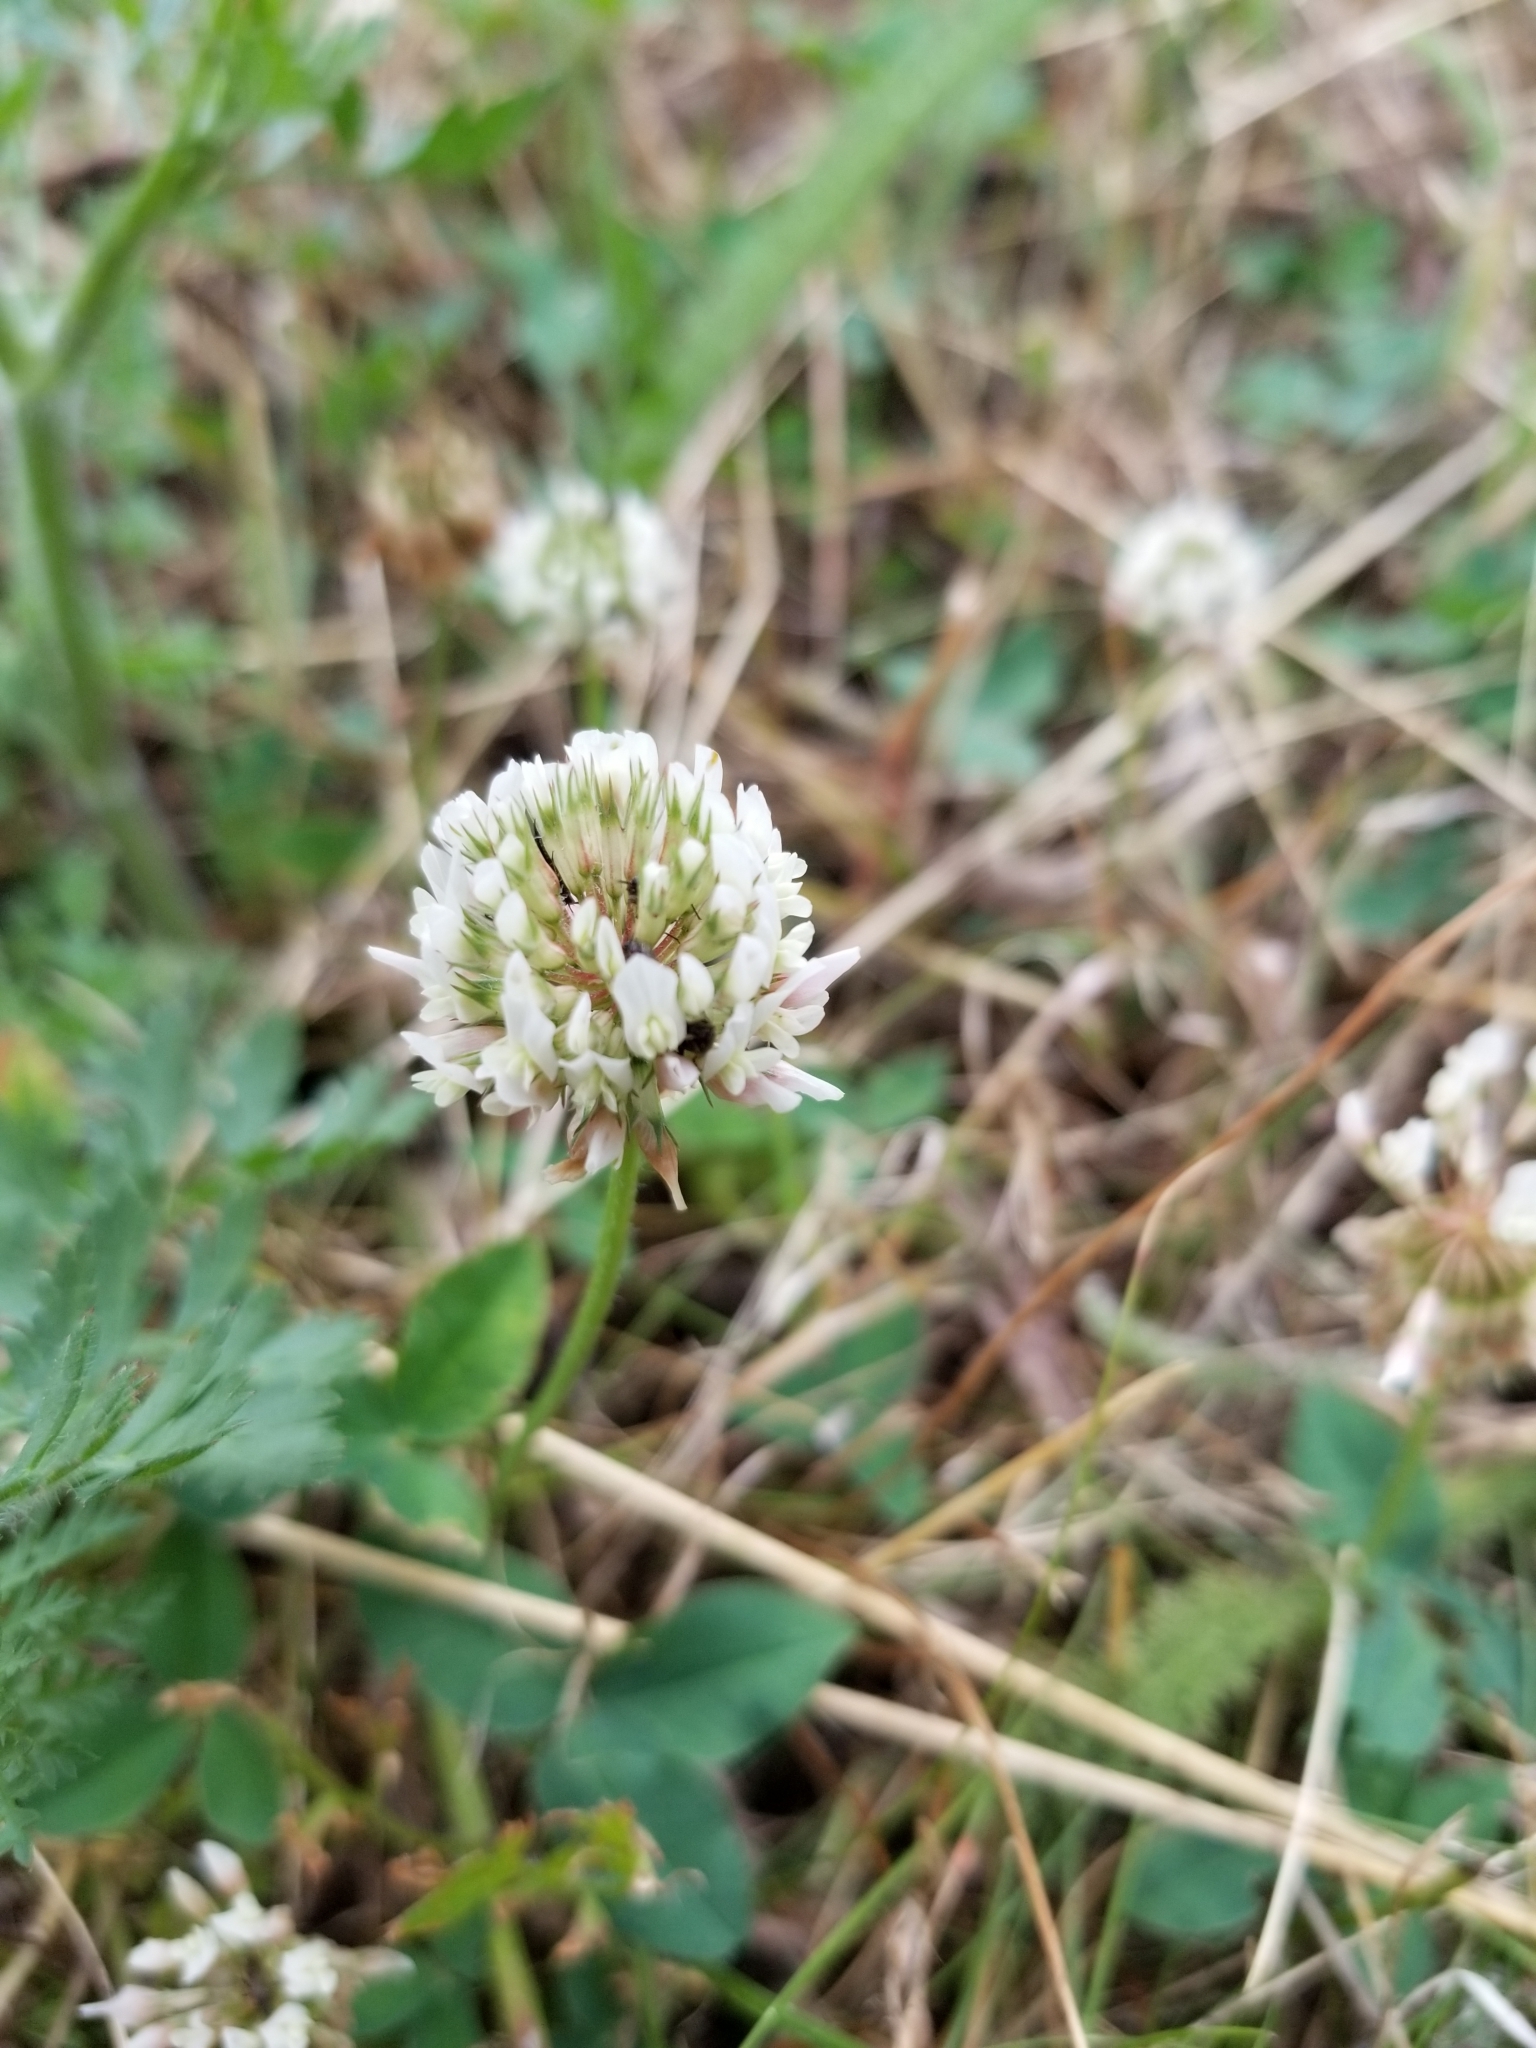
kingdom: Plantae
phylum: Tracheophyta
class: Magnoliopsida
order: Fabales
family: Fabaceae
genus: Trifolium
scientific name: Trifolium repens
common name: White clover
